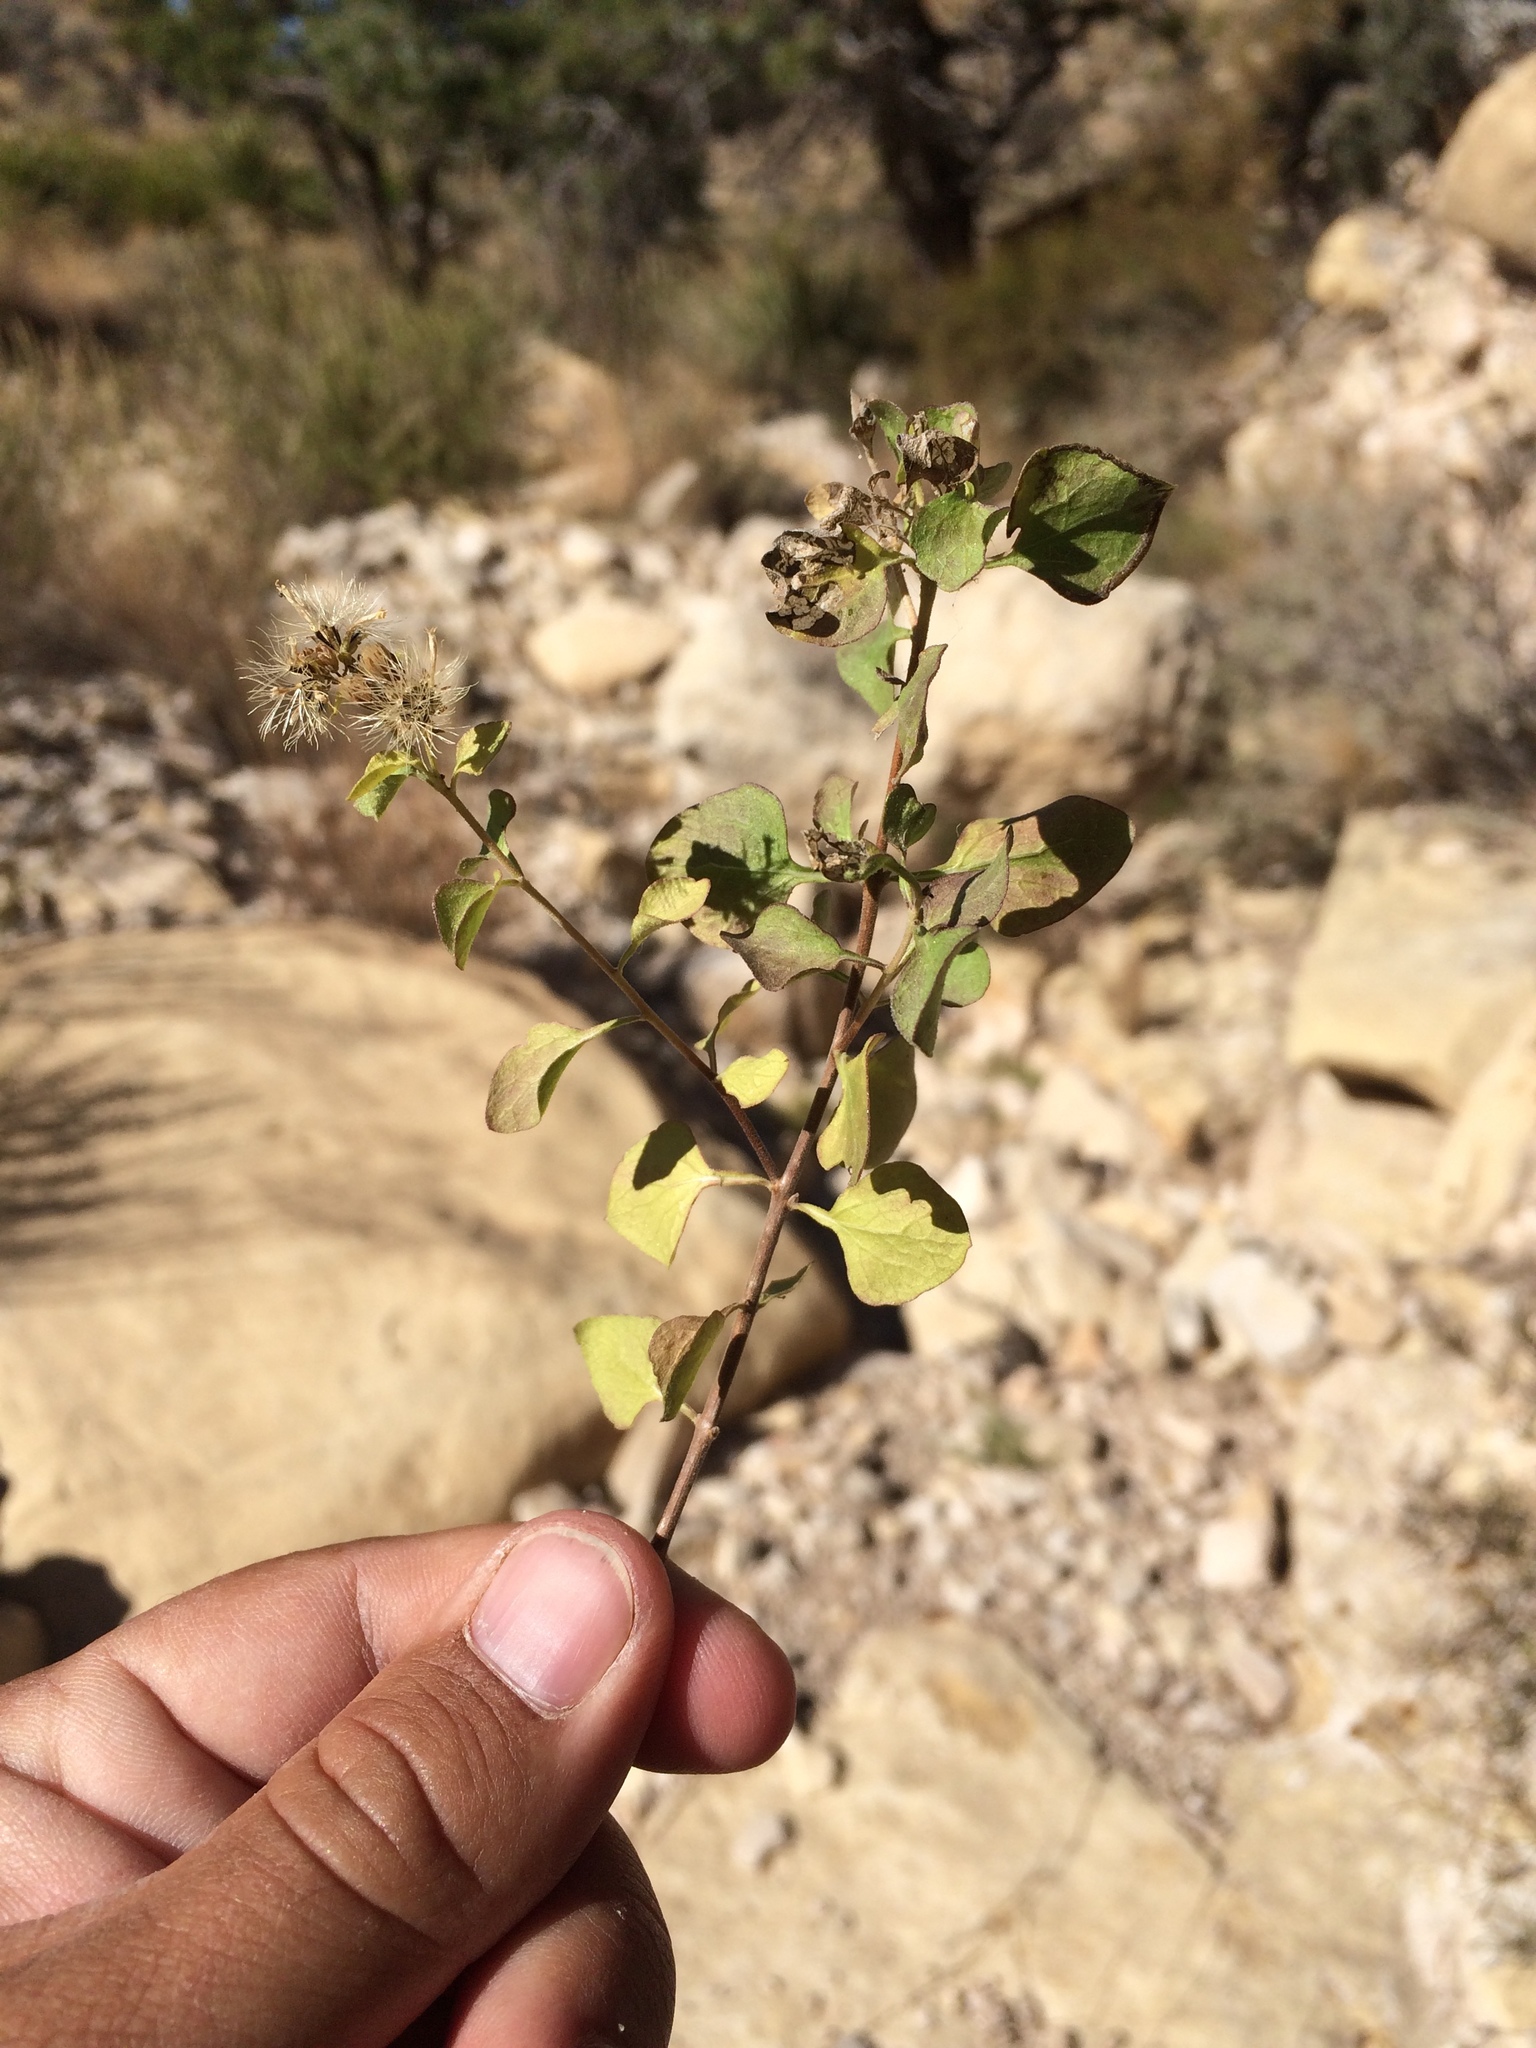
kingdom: Plantae
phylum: Tracheophyta
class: Magnoliopsida
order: Asterales
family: Asteraceae
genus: Ageratina
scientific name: Ageratina wrightii
